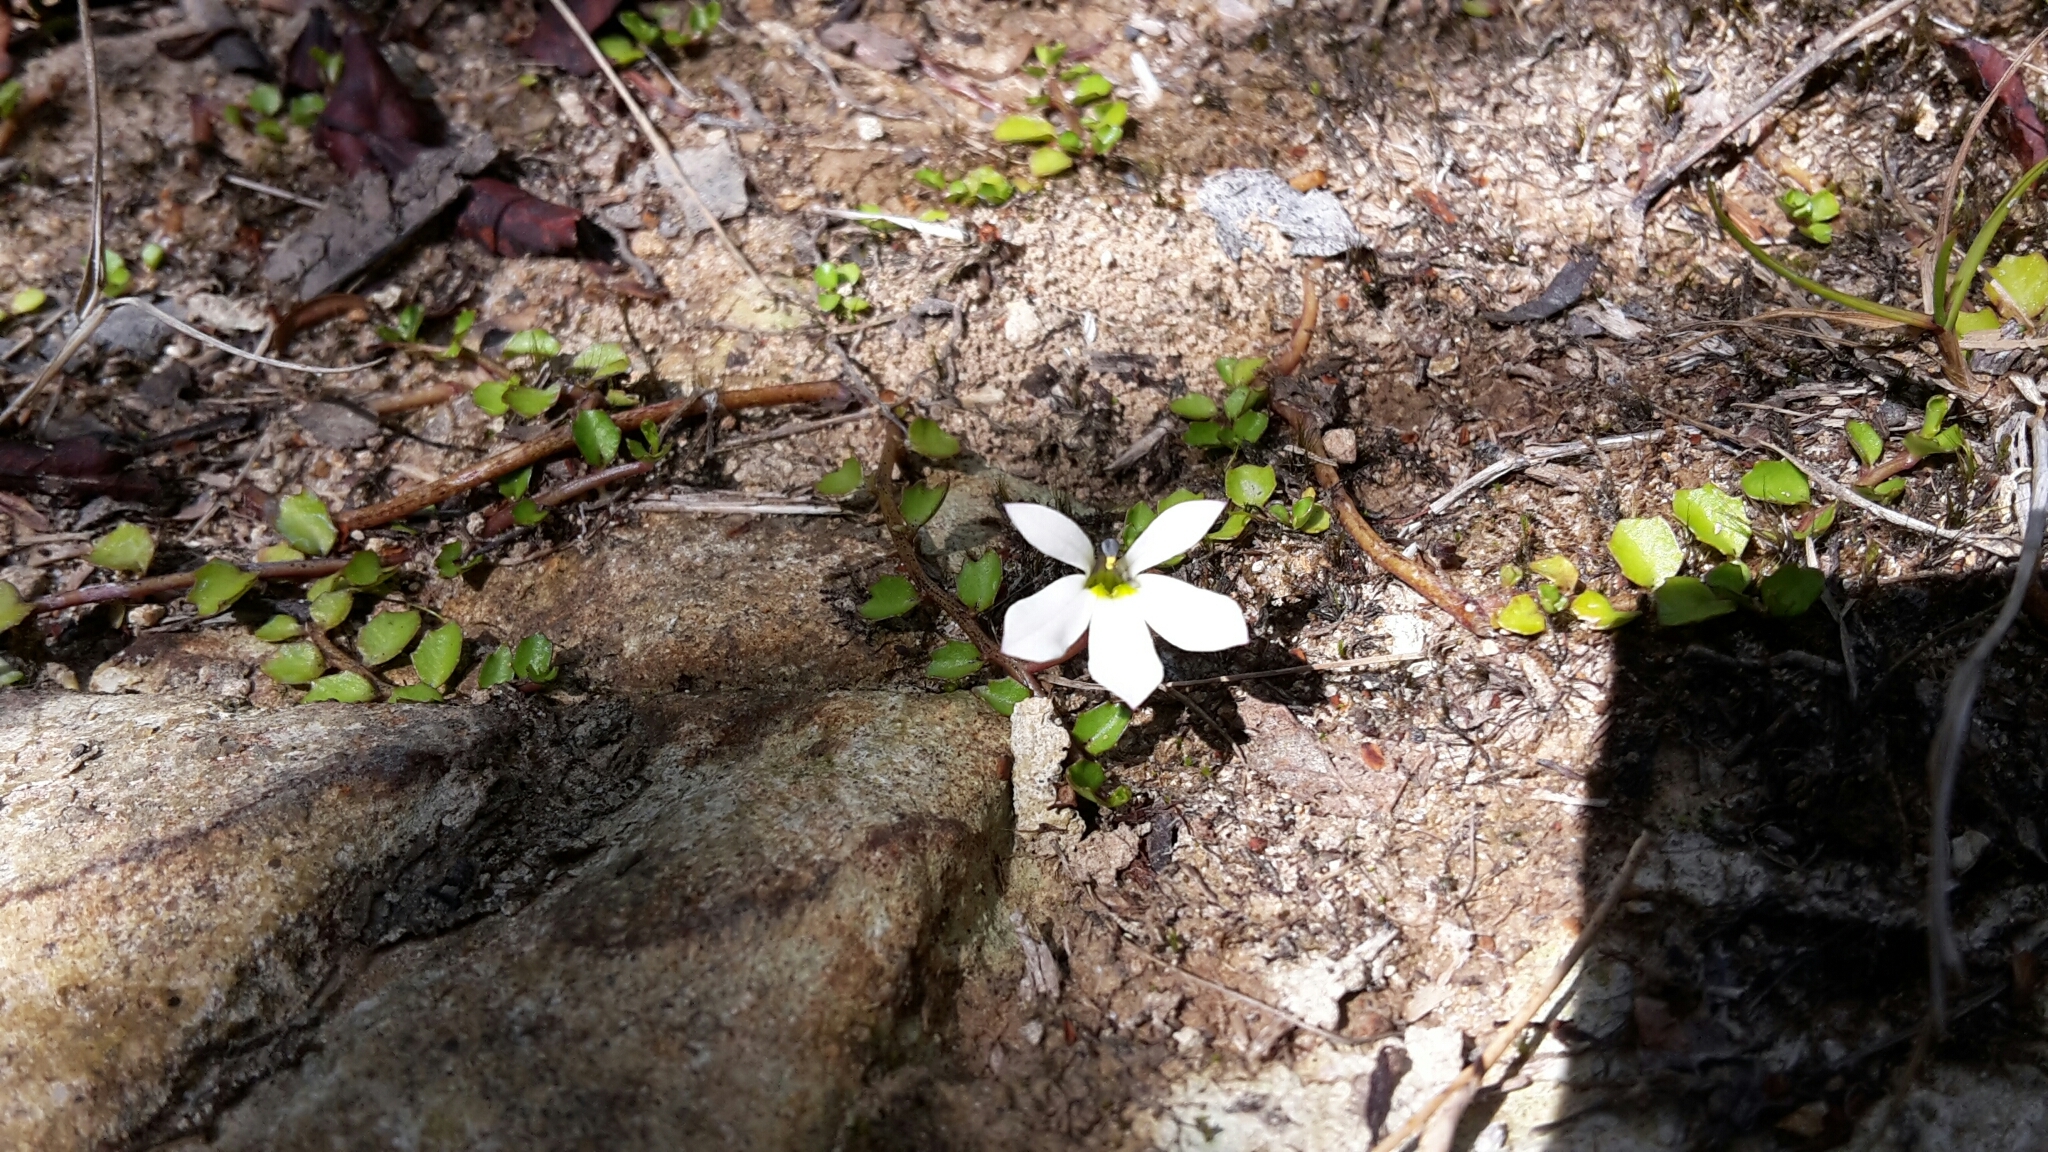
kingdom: Plantae
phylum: Tracheophyta
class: Magnoliopsida
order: Asterales
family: Campanulaceae
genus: Lobelia
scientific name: Lobelia angulata
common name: Lawn lobelia
